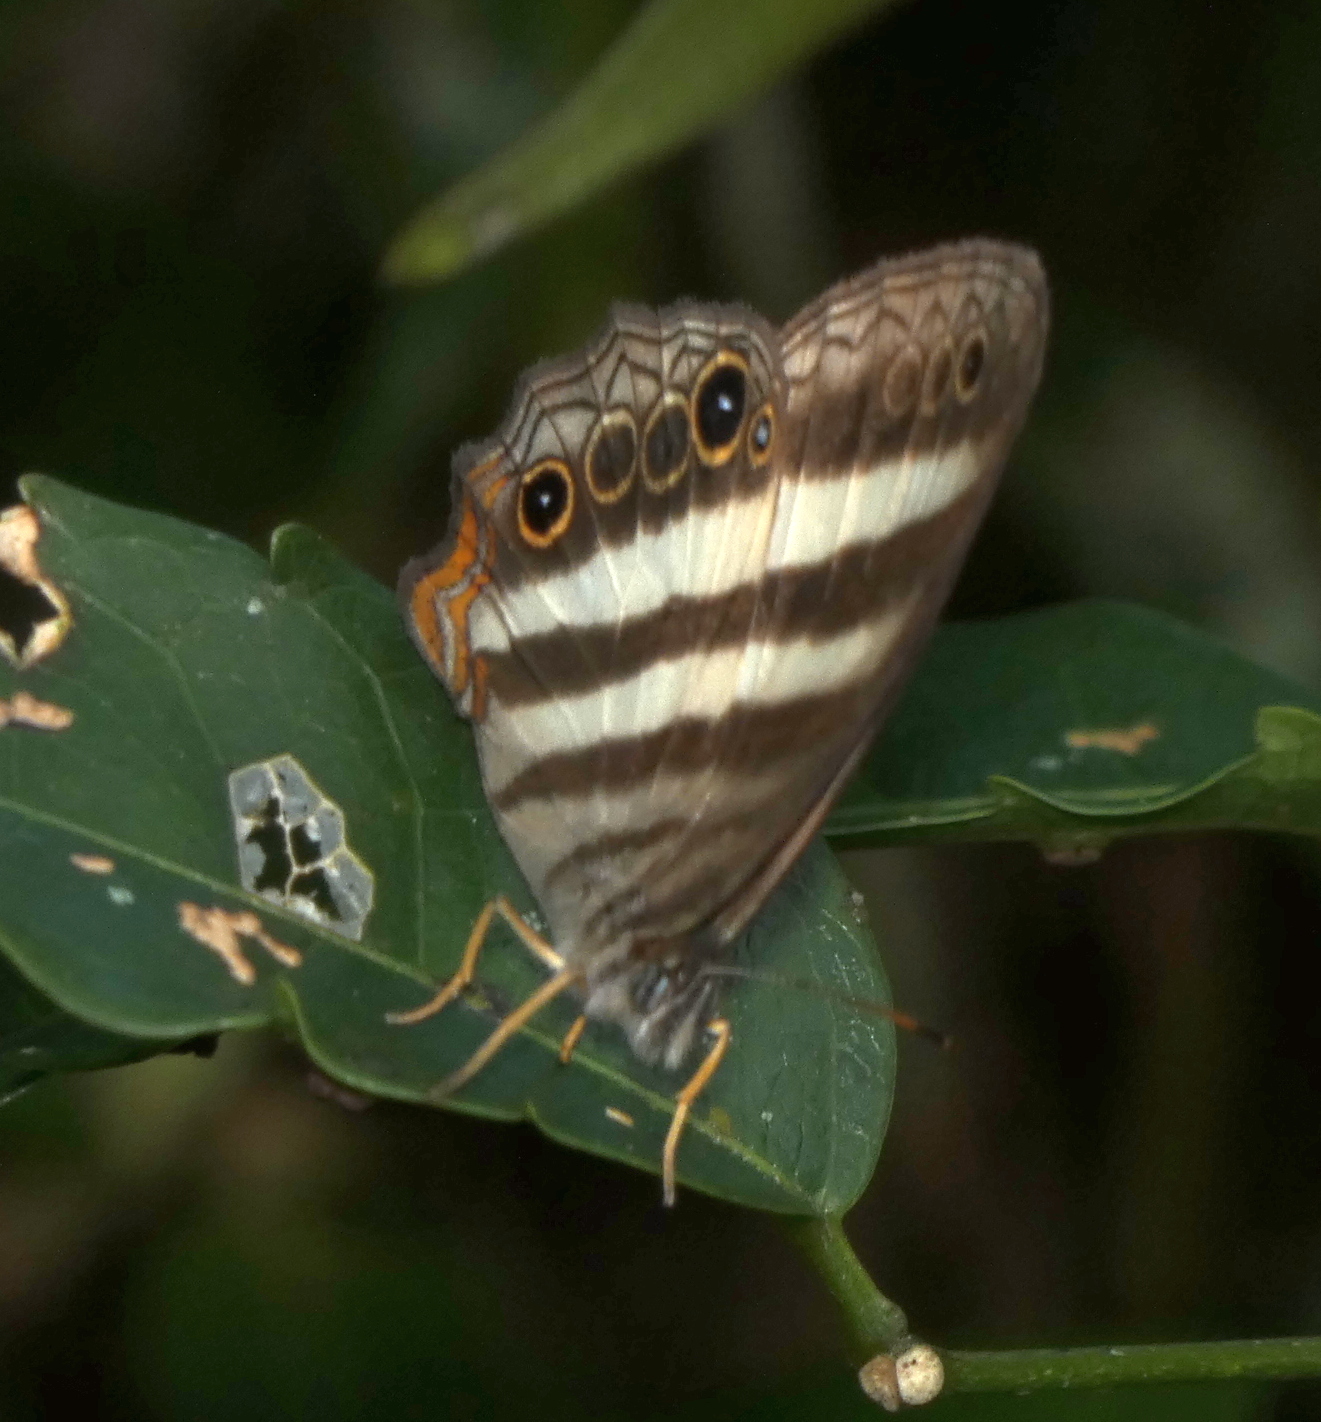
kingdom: Animalia
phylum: Arthropoda
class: Insecta
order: Lepidoptera
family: Nymphalidae
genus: Pareuptychia
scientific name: Pareuptychia hesione
